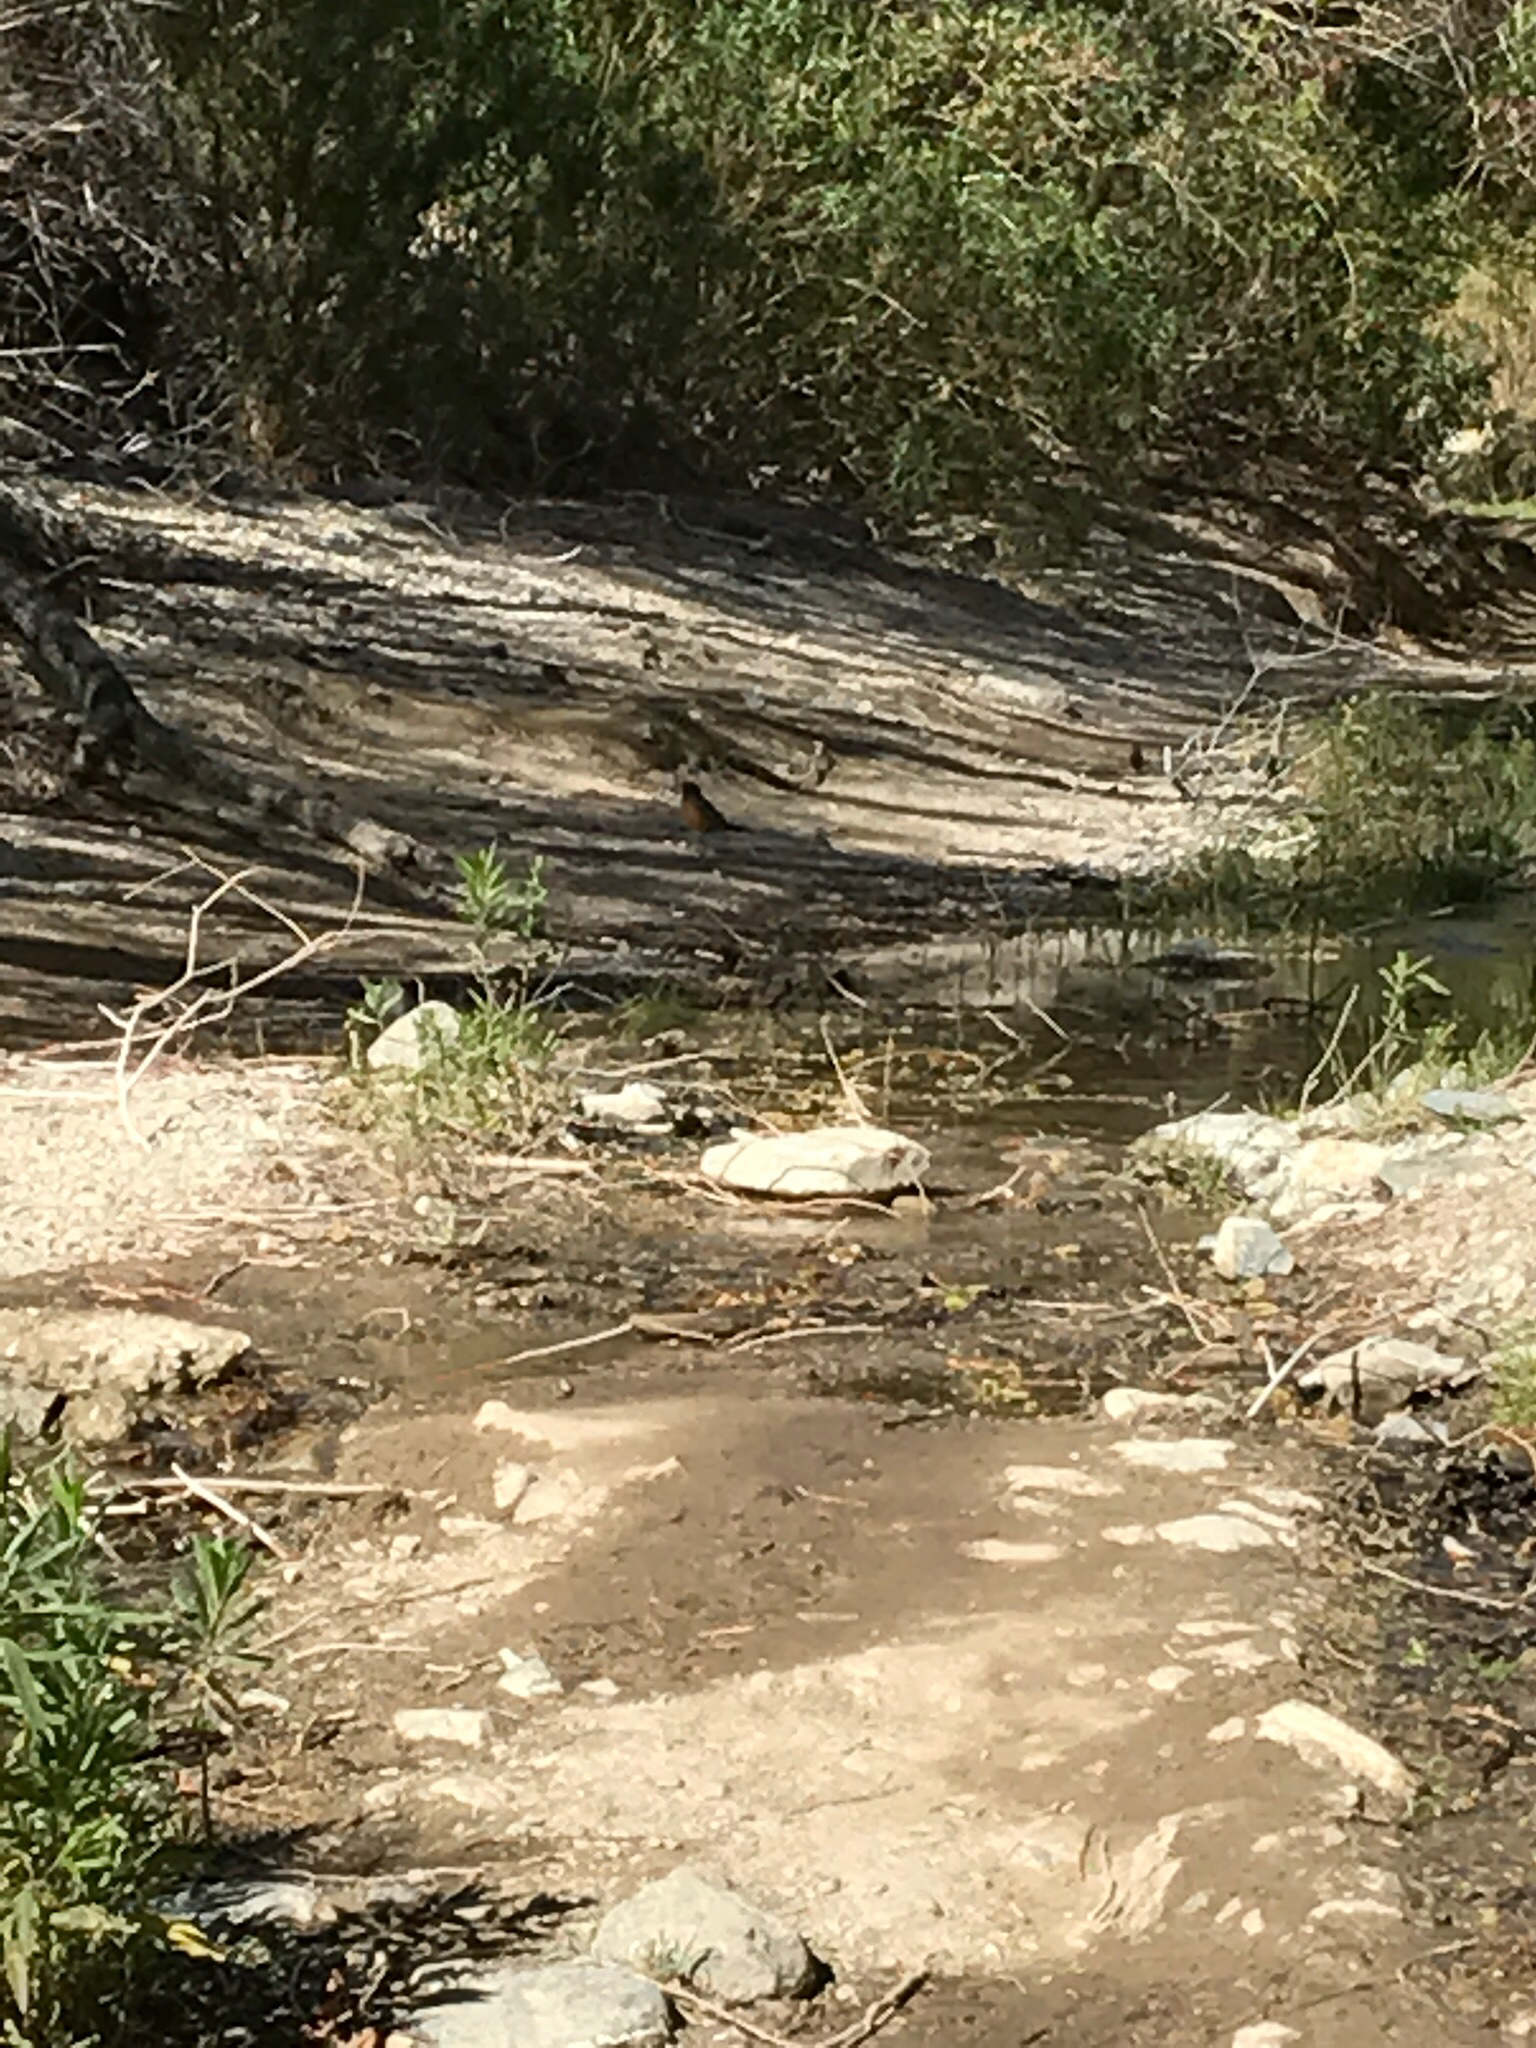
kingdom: Animalia
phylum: Chordata
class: Aves
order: Passeriformes
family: Turdidae
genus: Turdus
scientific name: Turdus migratorius
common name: American robin
